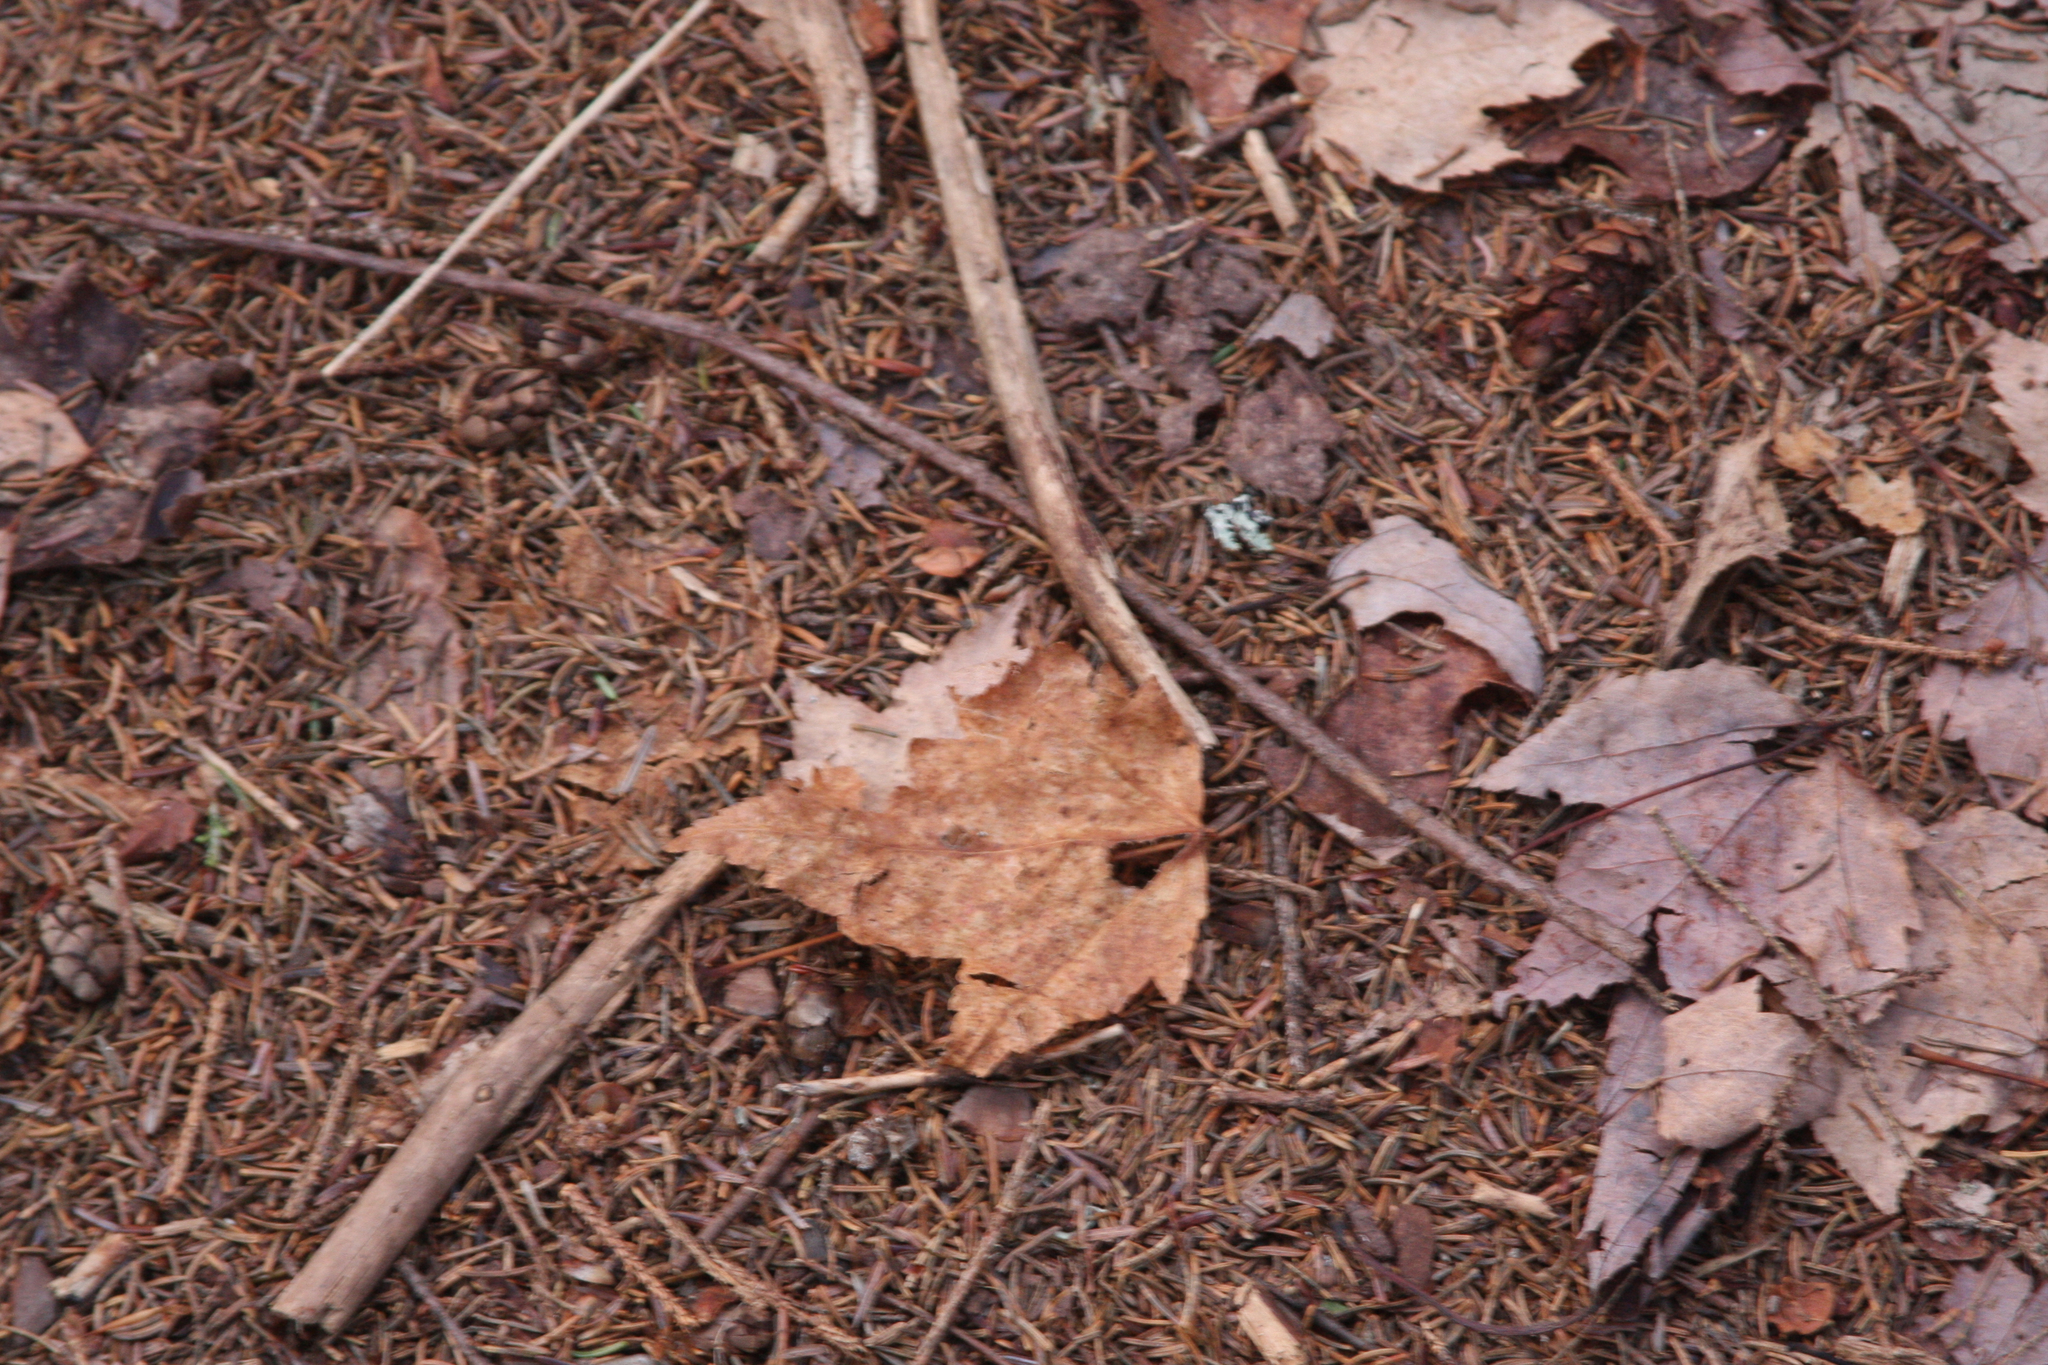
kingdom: Plantae
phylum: Tracheophyta
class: Magnoliopsida
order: Sapindales
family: Sapindaceae
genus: Acer
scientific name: Acer rubrum
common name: Red maple
